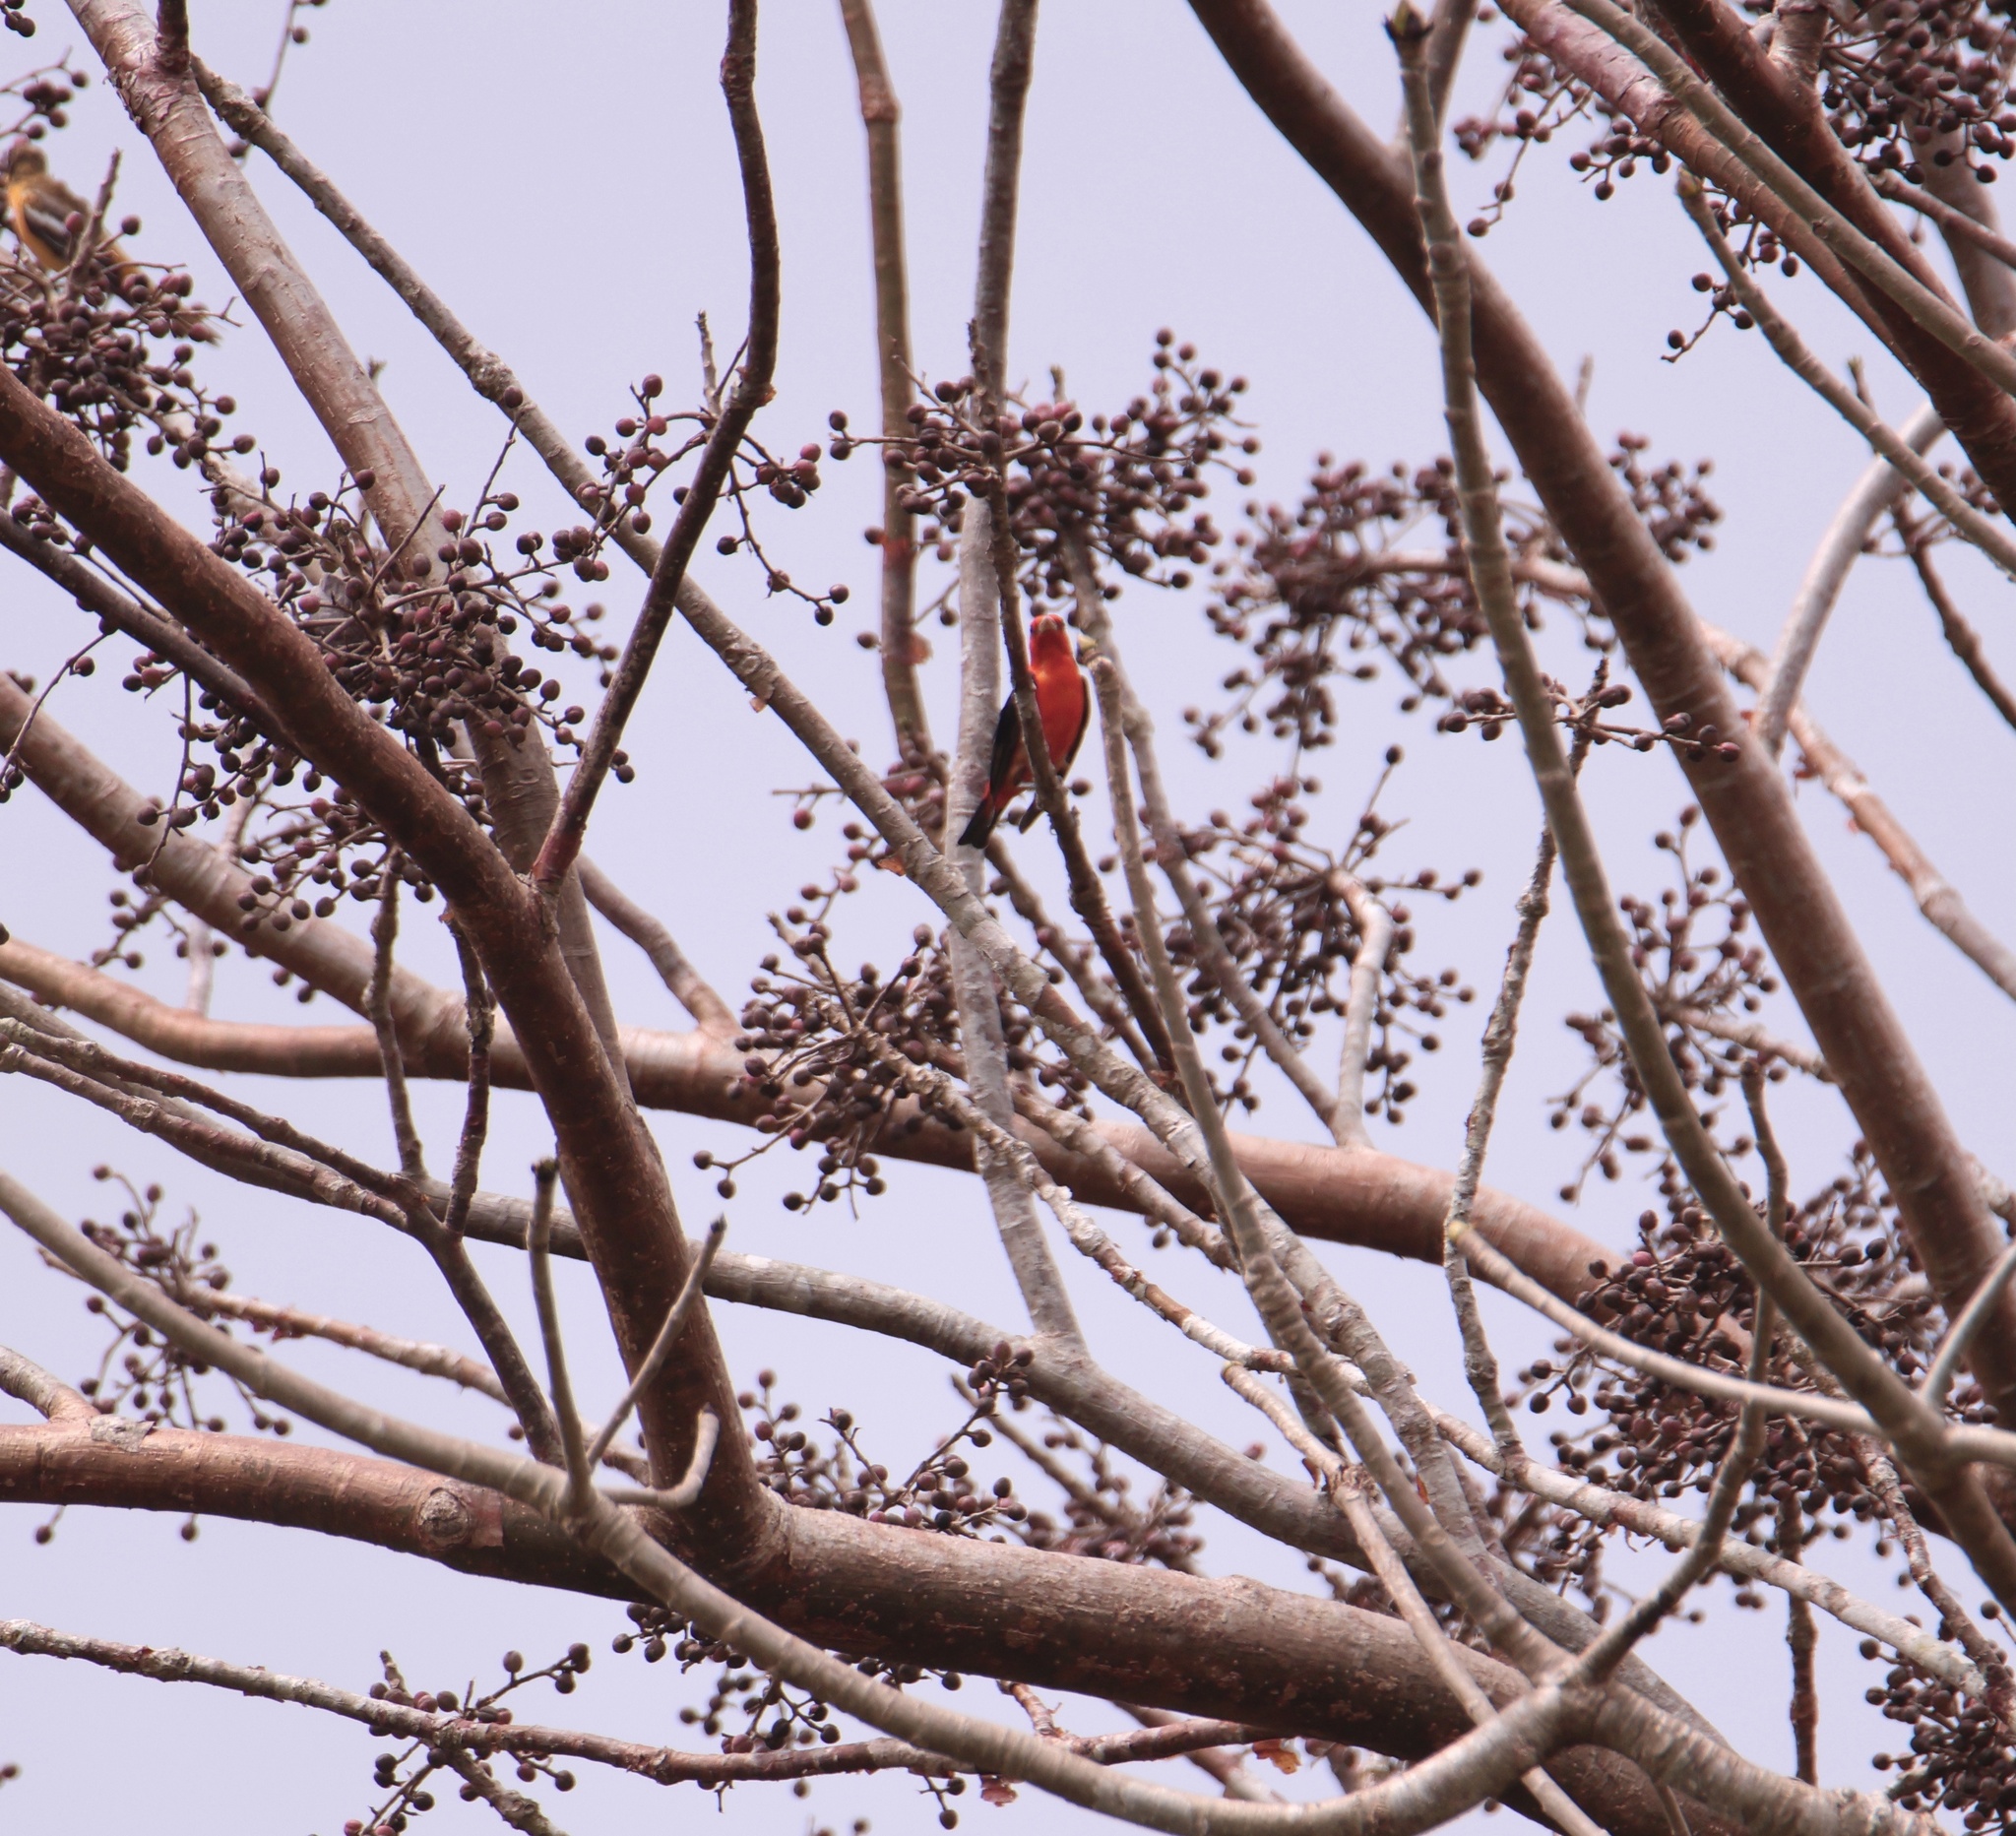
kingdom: Animalia
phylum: Chordata
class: Aves
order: Passeriformes
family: Cardinalidae
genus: Piranga
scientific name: Piranga olivacea
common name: Scarlet tanager
